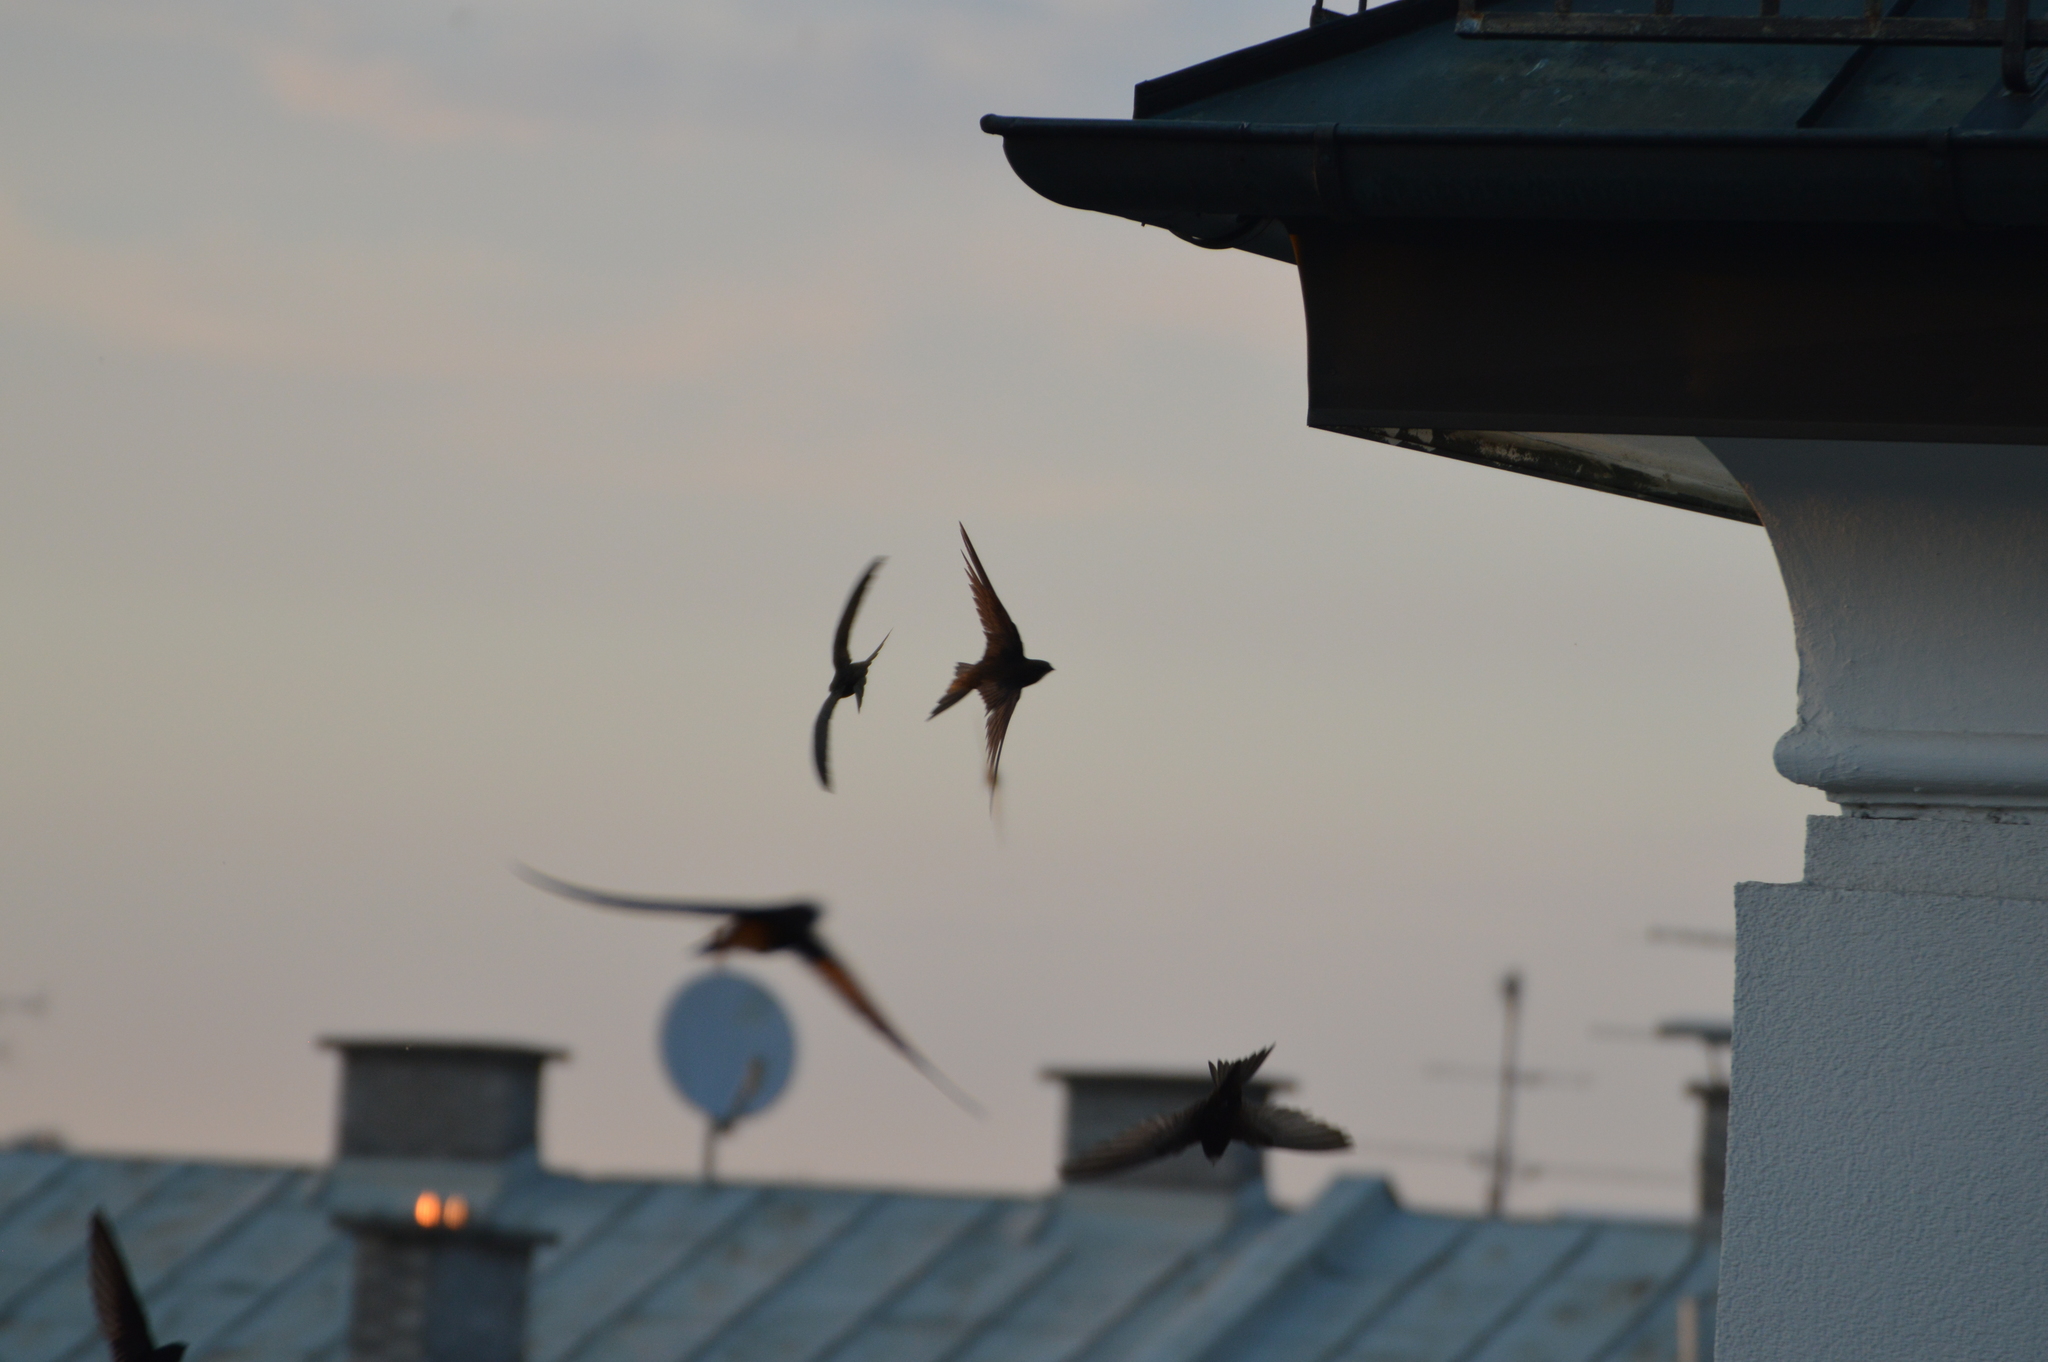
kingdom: Animalia
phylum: Chordata
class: Aves
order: Apodiformes
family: Apodidae
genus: Apus
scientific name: Apus apus
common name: Common swift
